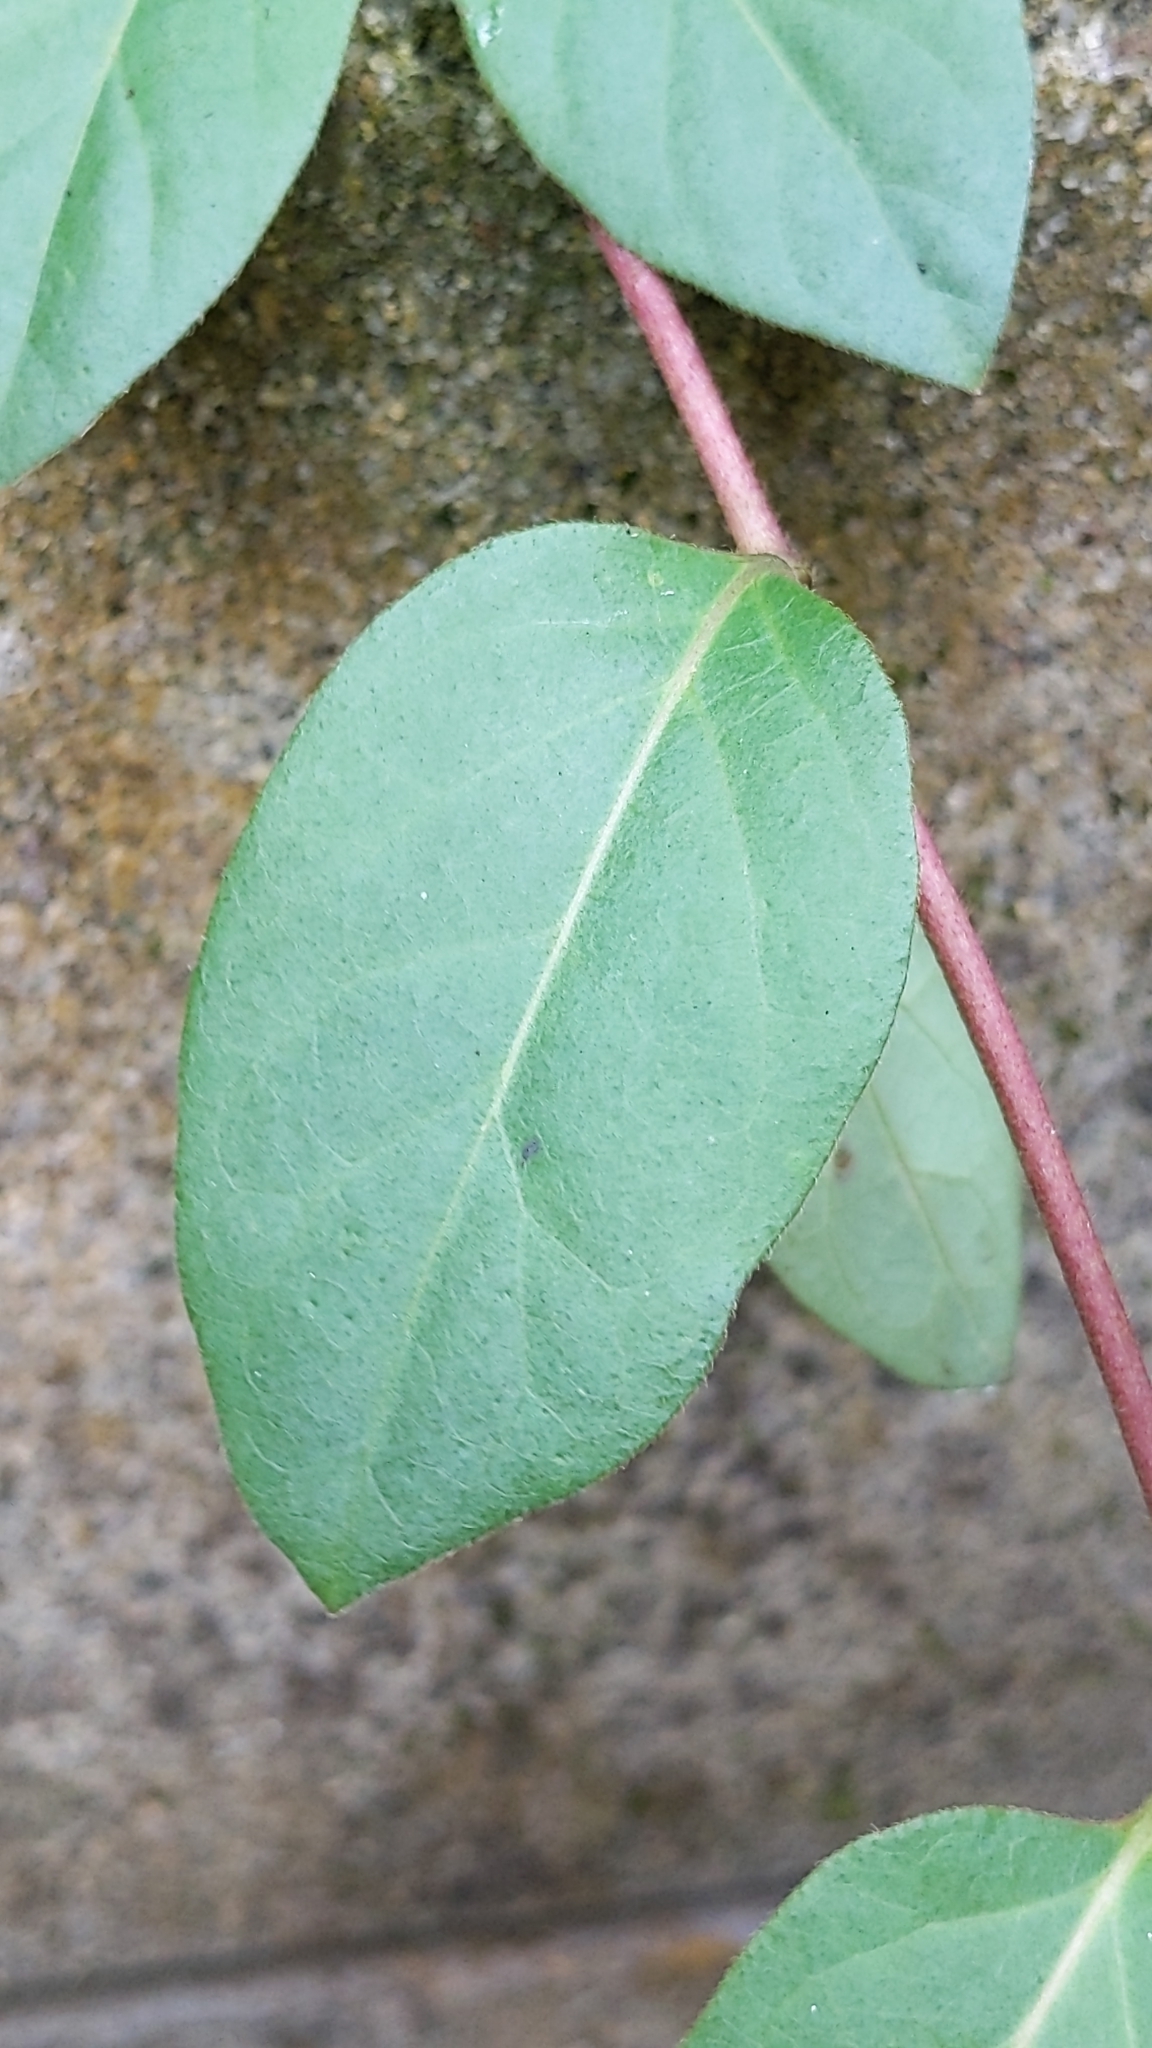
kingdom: Plantae
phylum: Tracheophyta
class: Magnoliopsida
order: Dipsacales
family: Caprifoliaceae
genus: Lonicera
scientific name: Lonicera japonica
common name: Japanese honeysuckle
